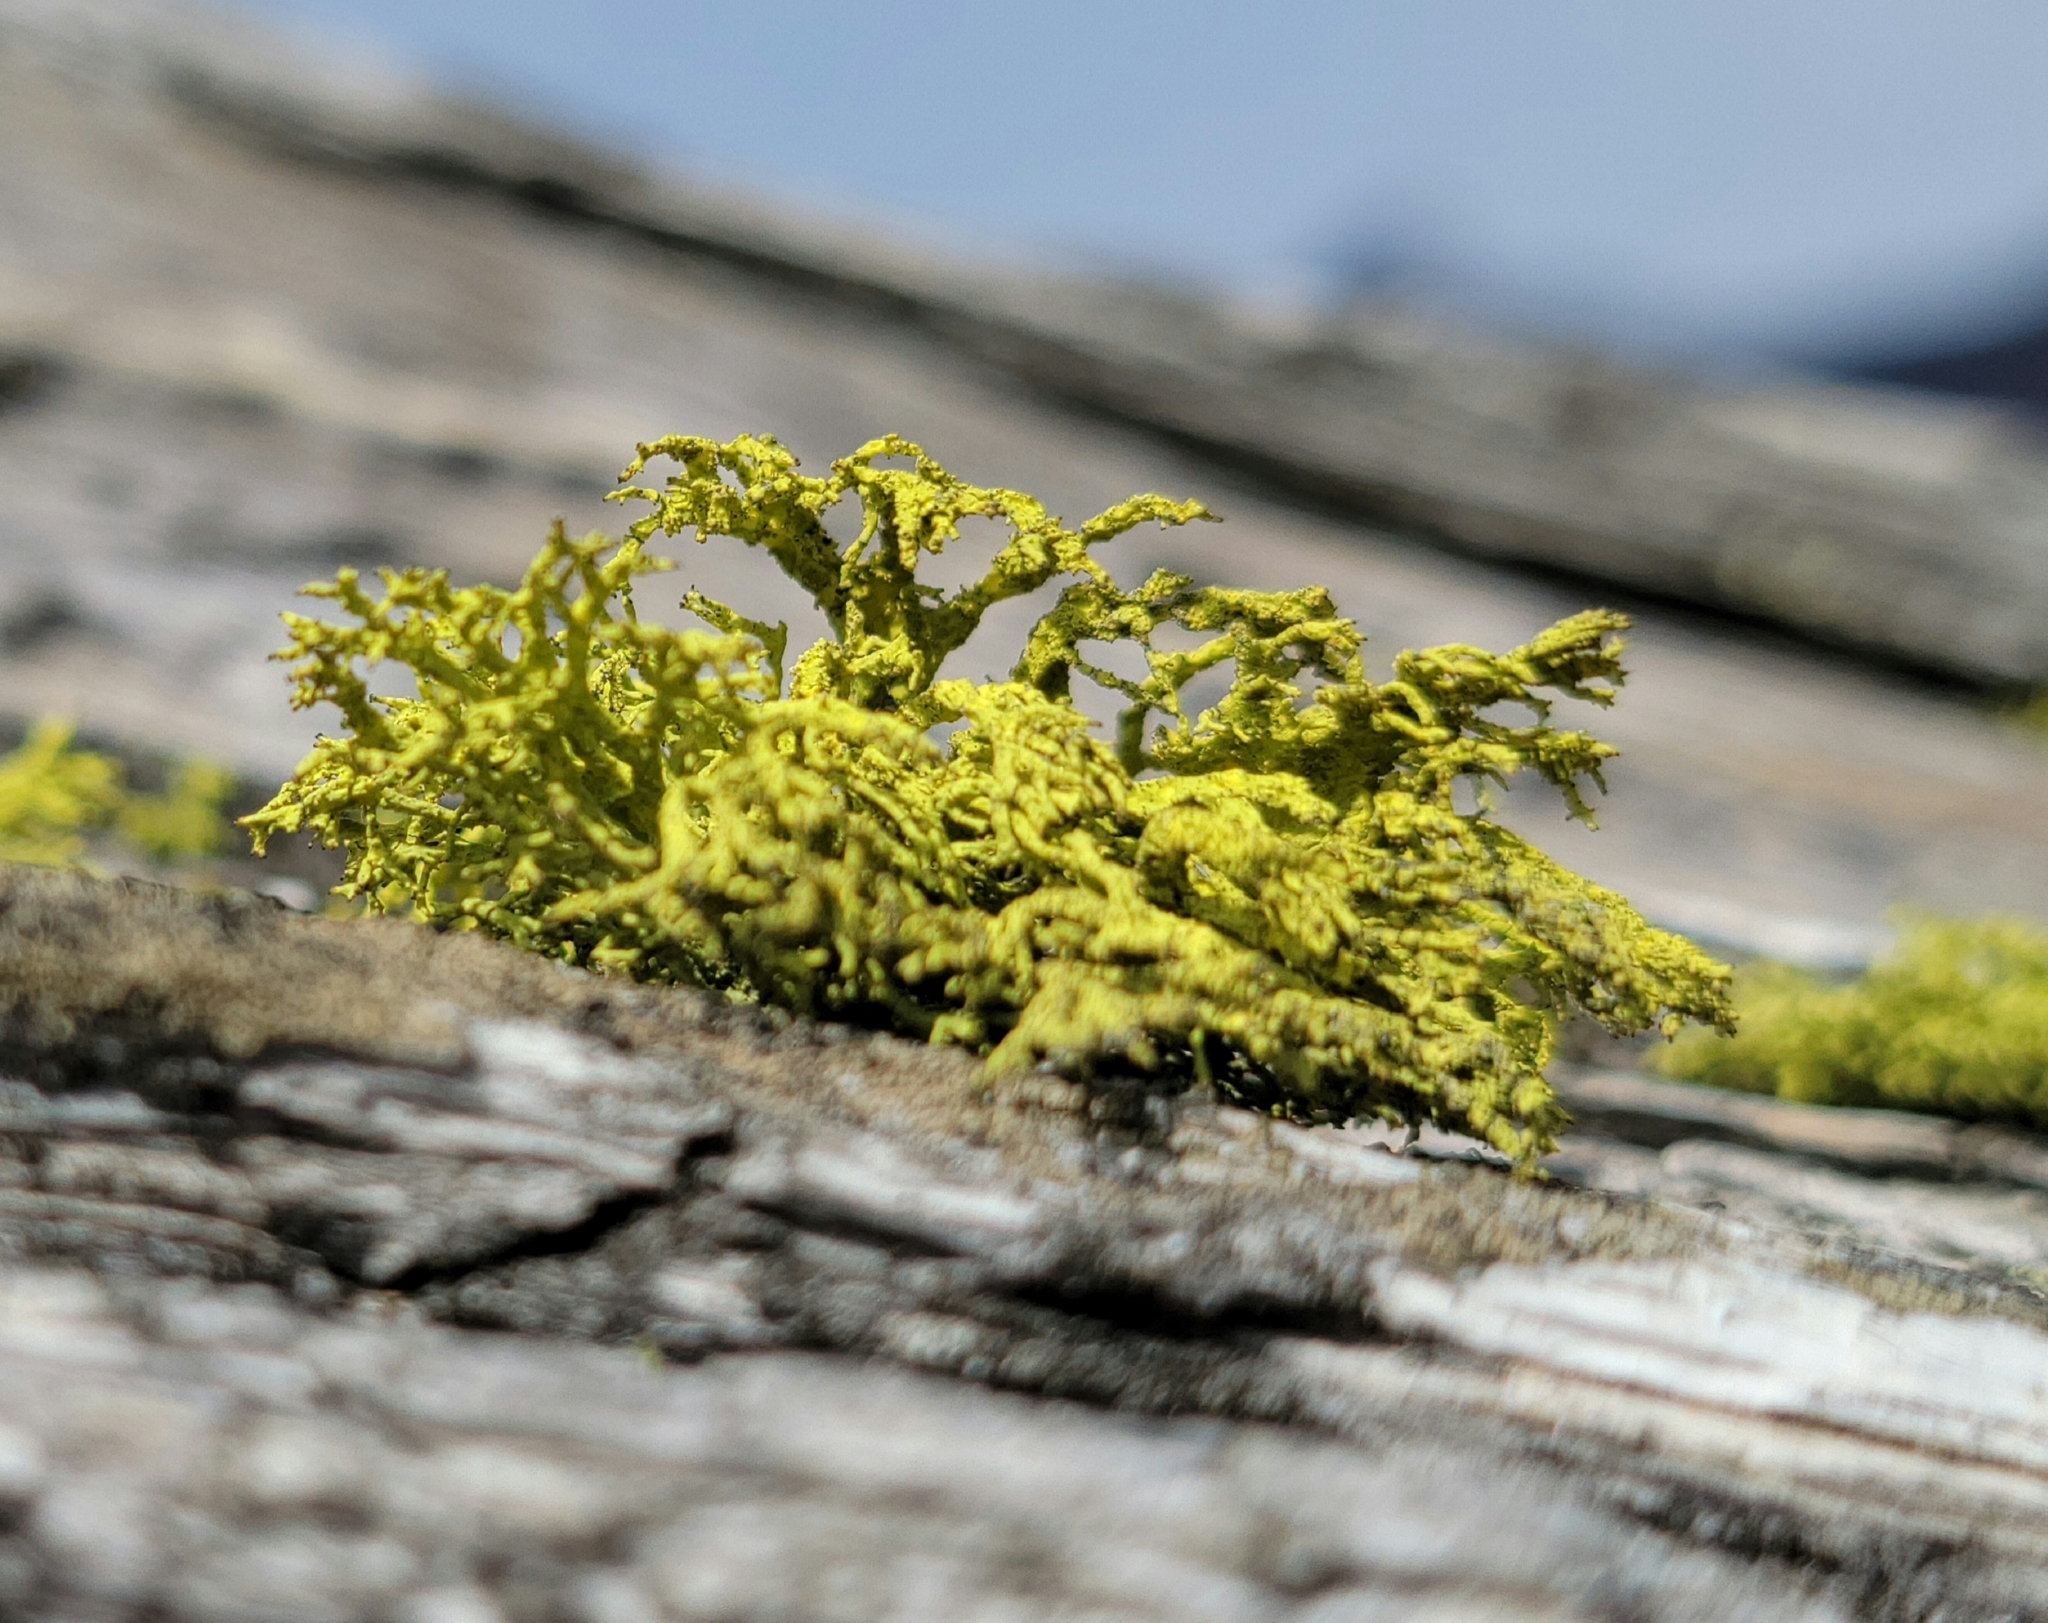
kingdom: Fungi
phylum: Ascomycota
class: Lecanoromycetes
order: Lecanorales
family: Parmeliaceae
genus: Letharia
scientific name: Letharia vulpina
